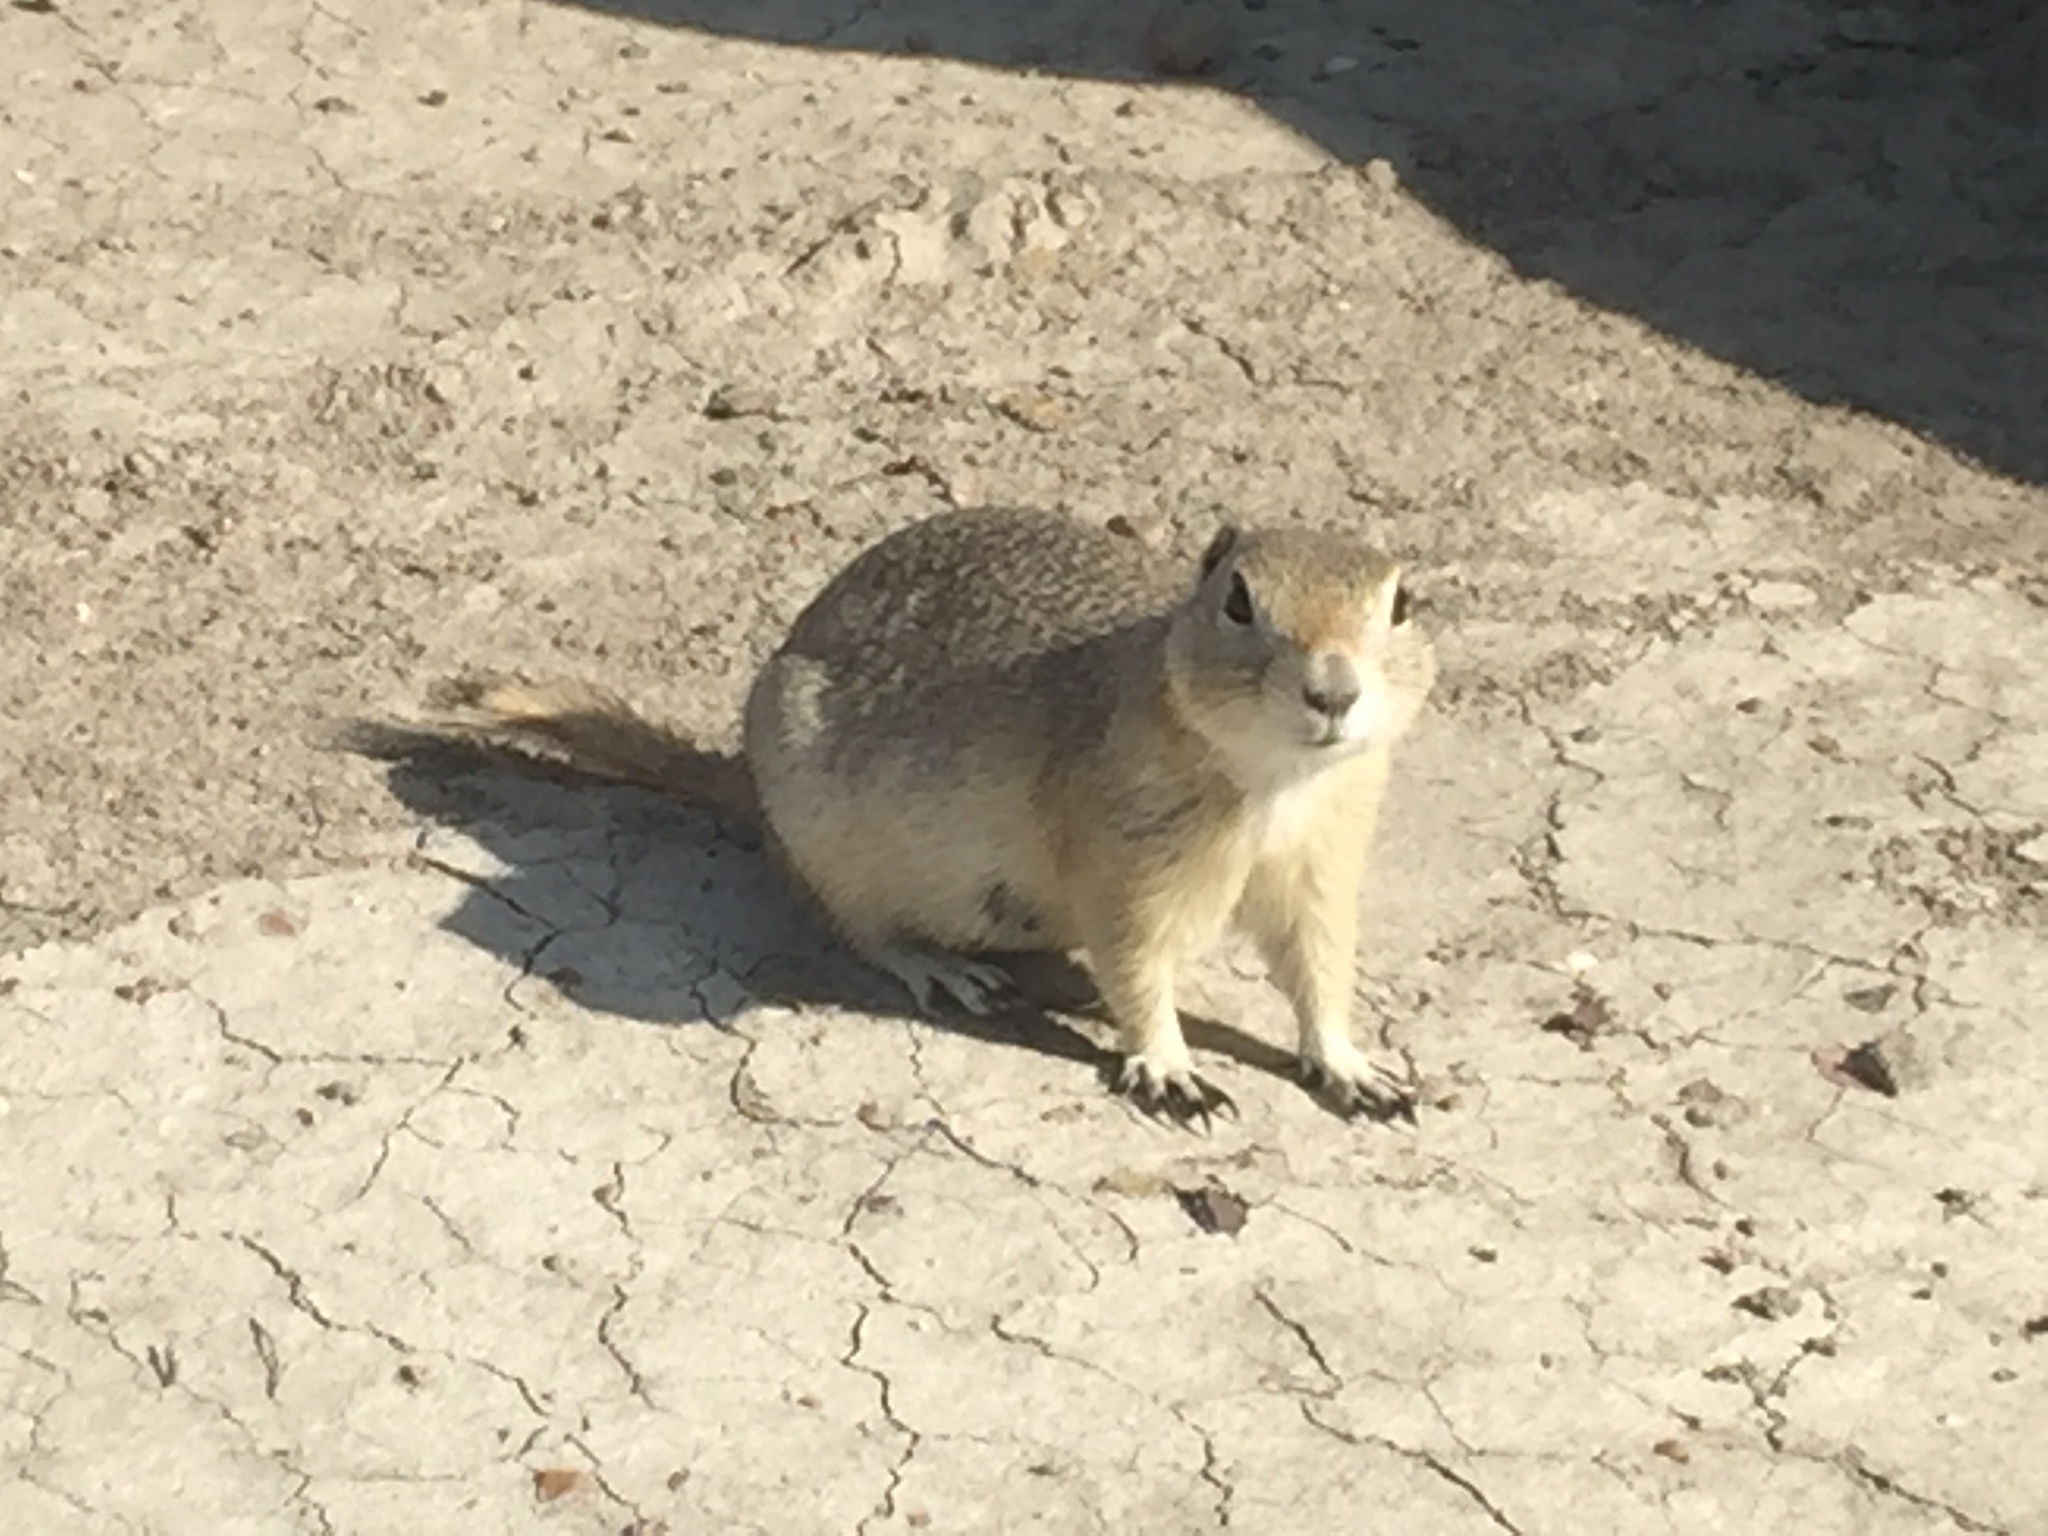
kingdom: Animalia
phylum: Chordata
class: Mammalia
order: Rodentia
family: Sciuridae
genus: Urocitellus
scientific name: Urocitellus richardsonii
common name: Richardson's ground squirrel
